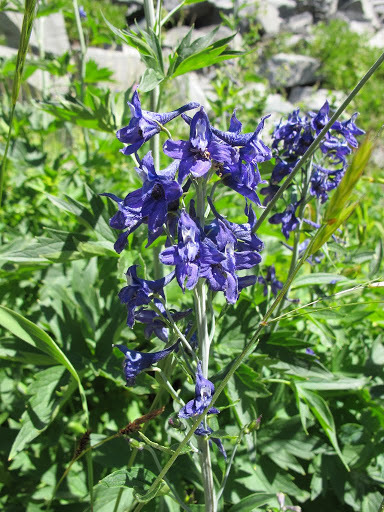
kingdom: Plantae
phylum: Tracheophyta
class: Magnoliopsida
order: Ranunculales
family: Ranunculaceae
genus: Delphinium
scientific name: Delphinium glaucum
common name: Brown's larkspur
